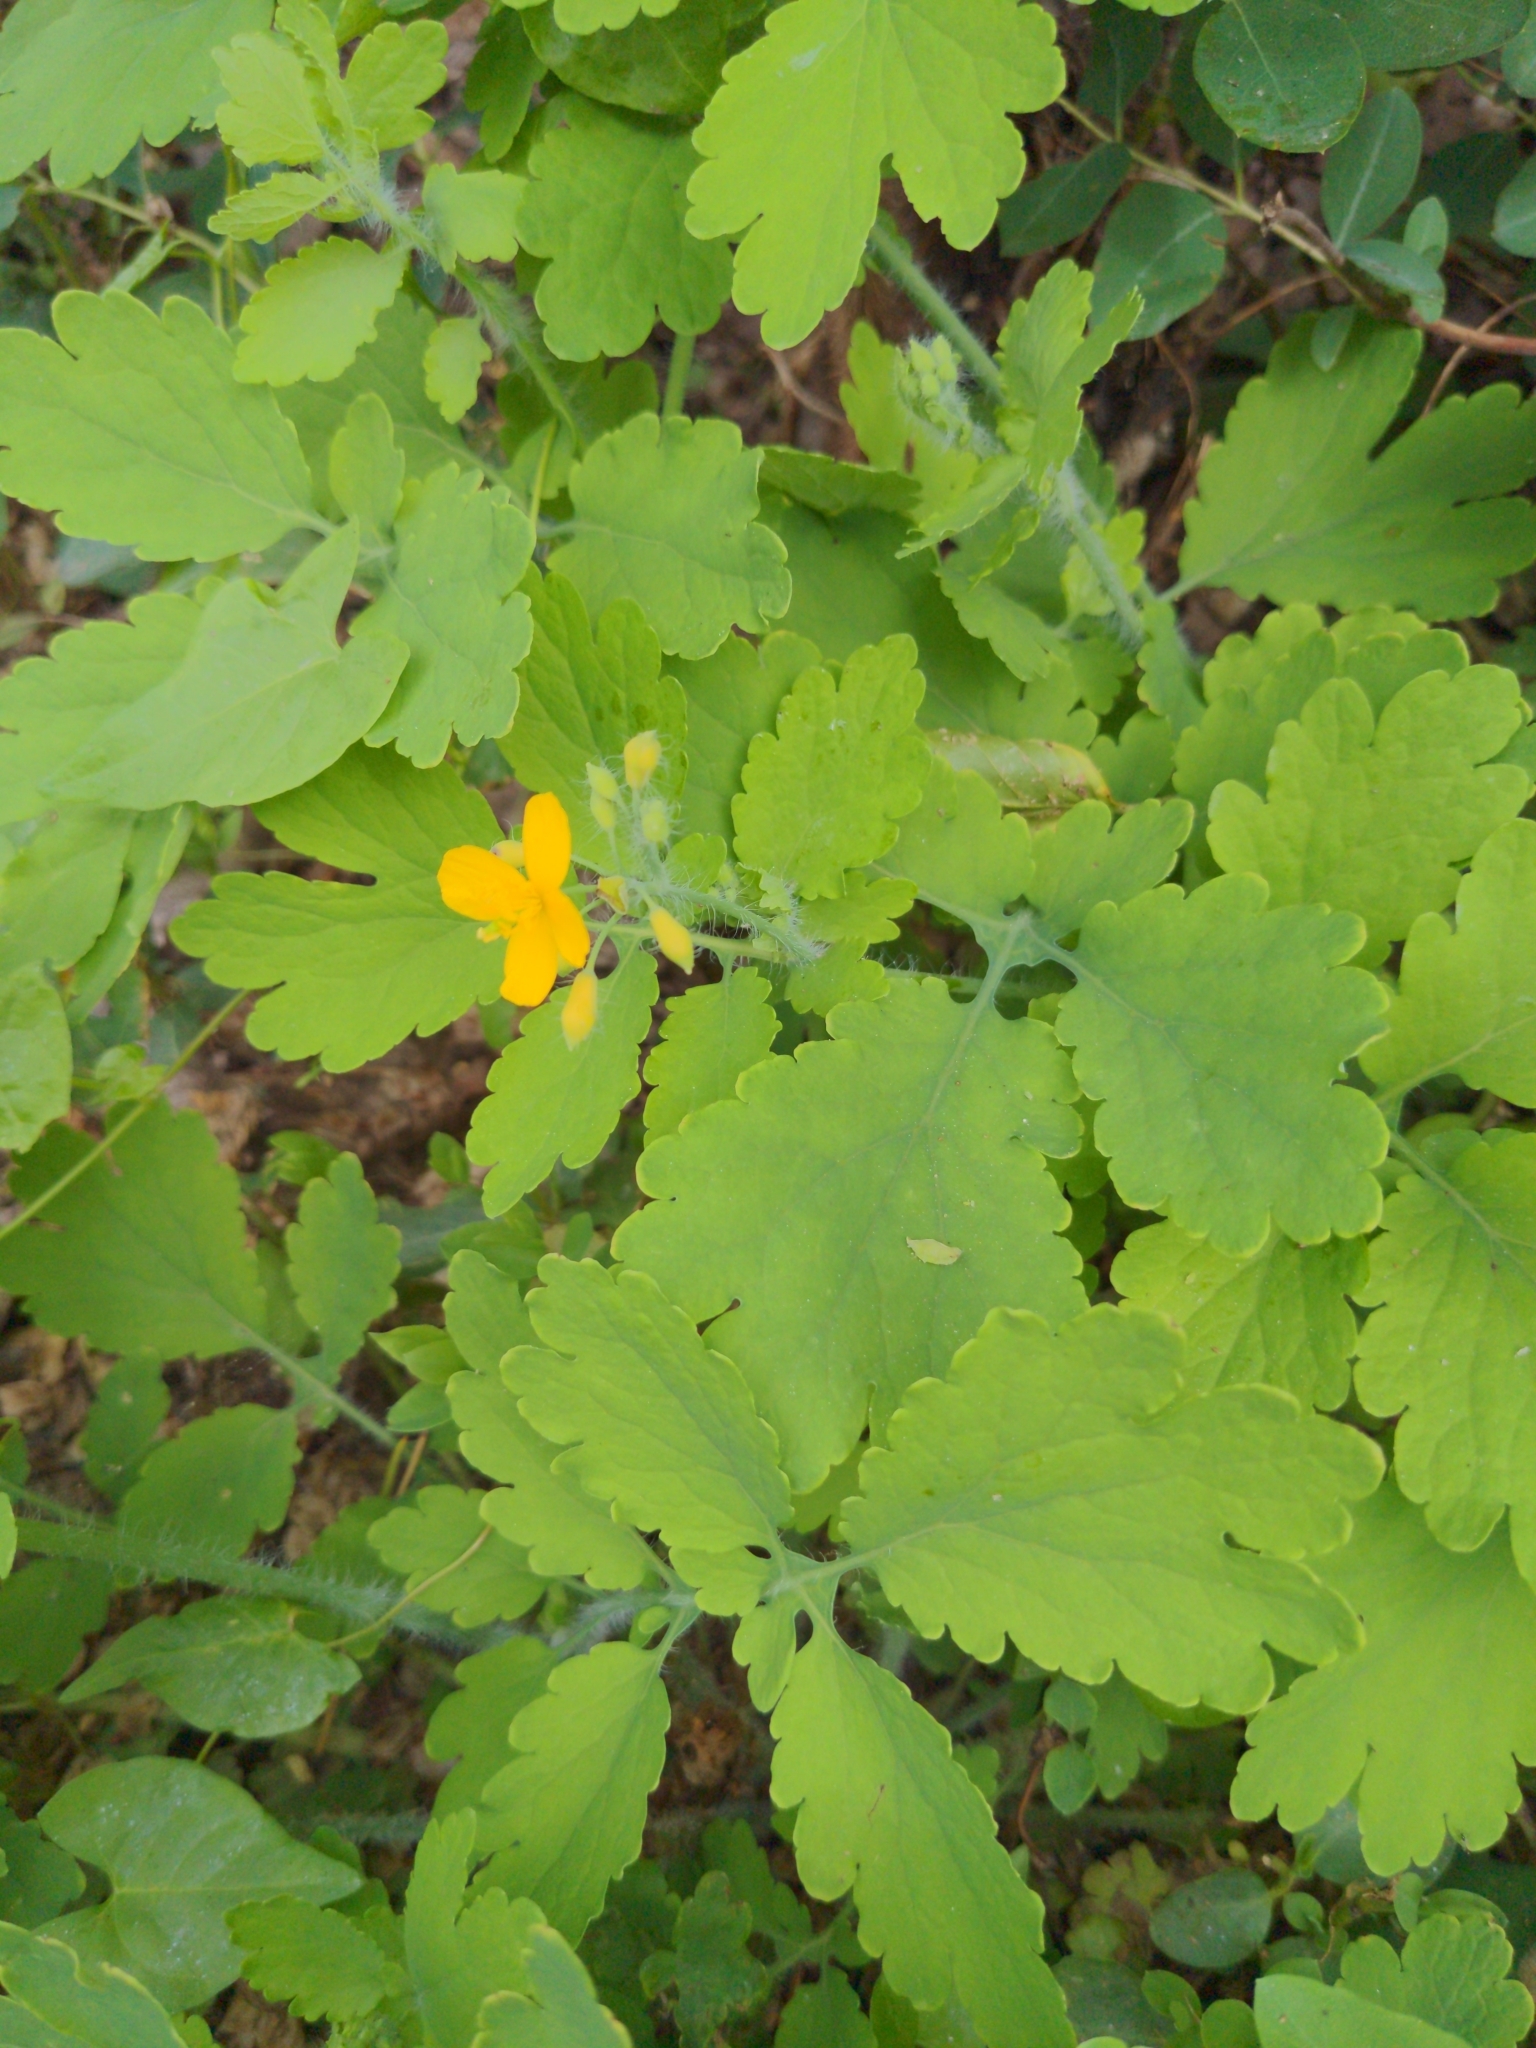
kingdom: Plantae
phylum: Tracheophyta
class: Magnoliopsida
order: Ranunculales
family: Papaveraceae
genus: Chelidonium
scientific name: Chelidonium majus
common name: Greater celandine
